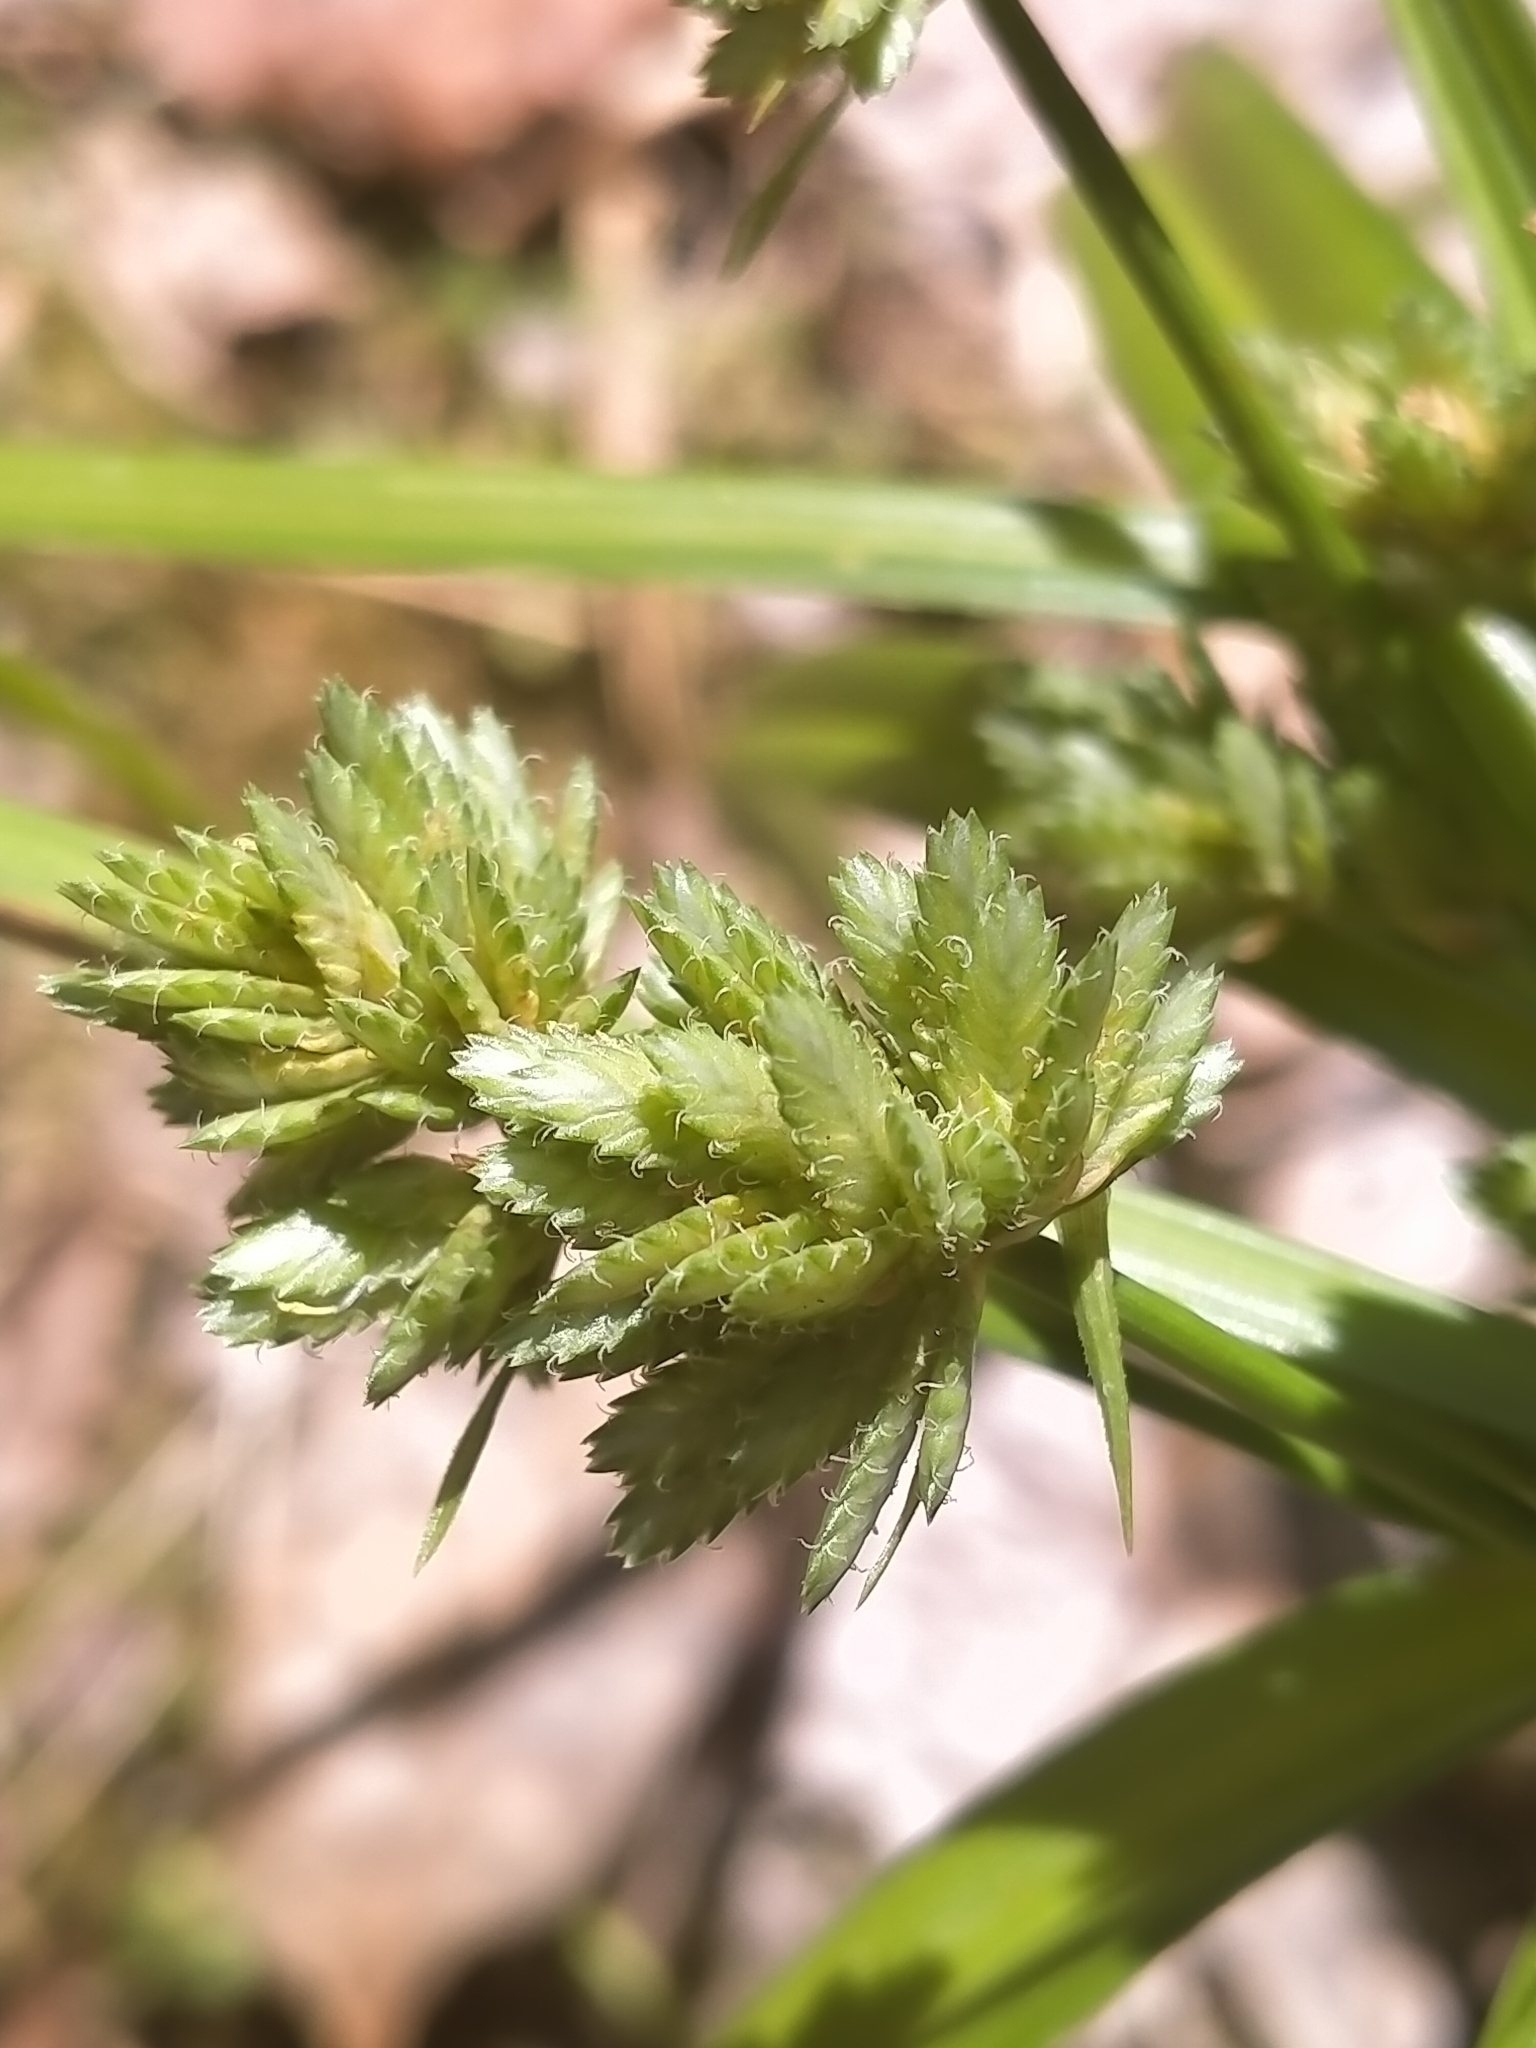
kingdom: Plantae
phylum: Tracheophyta
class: Liliopsida
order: Poales
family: Cyperaceae
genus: Cyperus
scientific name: Cyperus eragrostis
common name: Tall flatsedge
